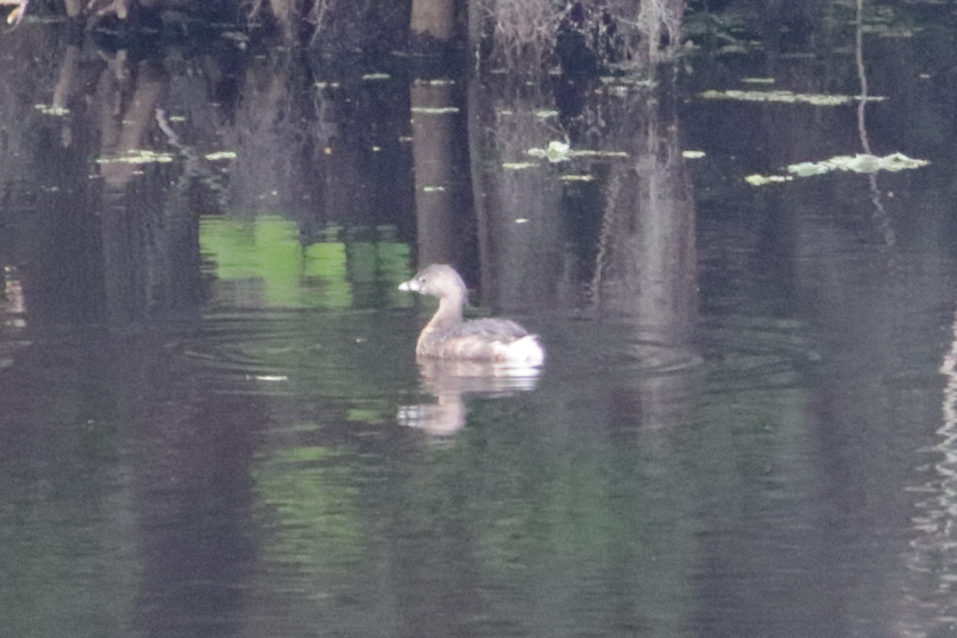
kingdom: Animalia
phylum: Chordata
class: Aves
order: Podicipediformes
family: Podicipedidae
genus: Podilymbus
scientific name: Podilymbus podiceps
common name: Pied-billed grebe
